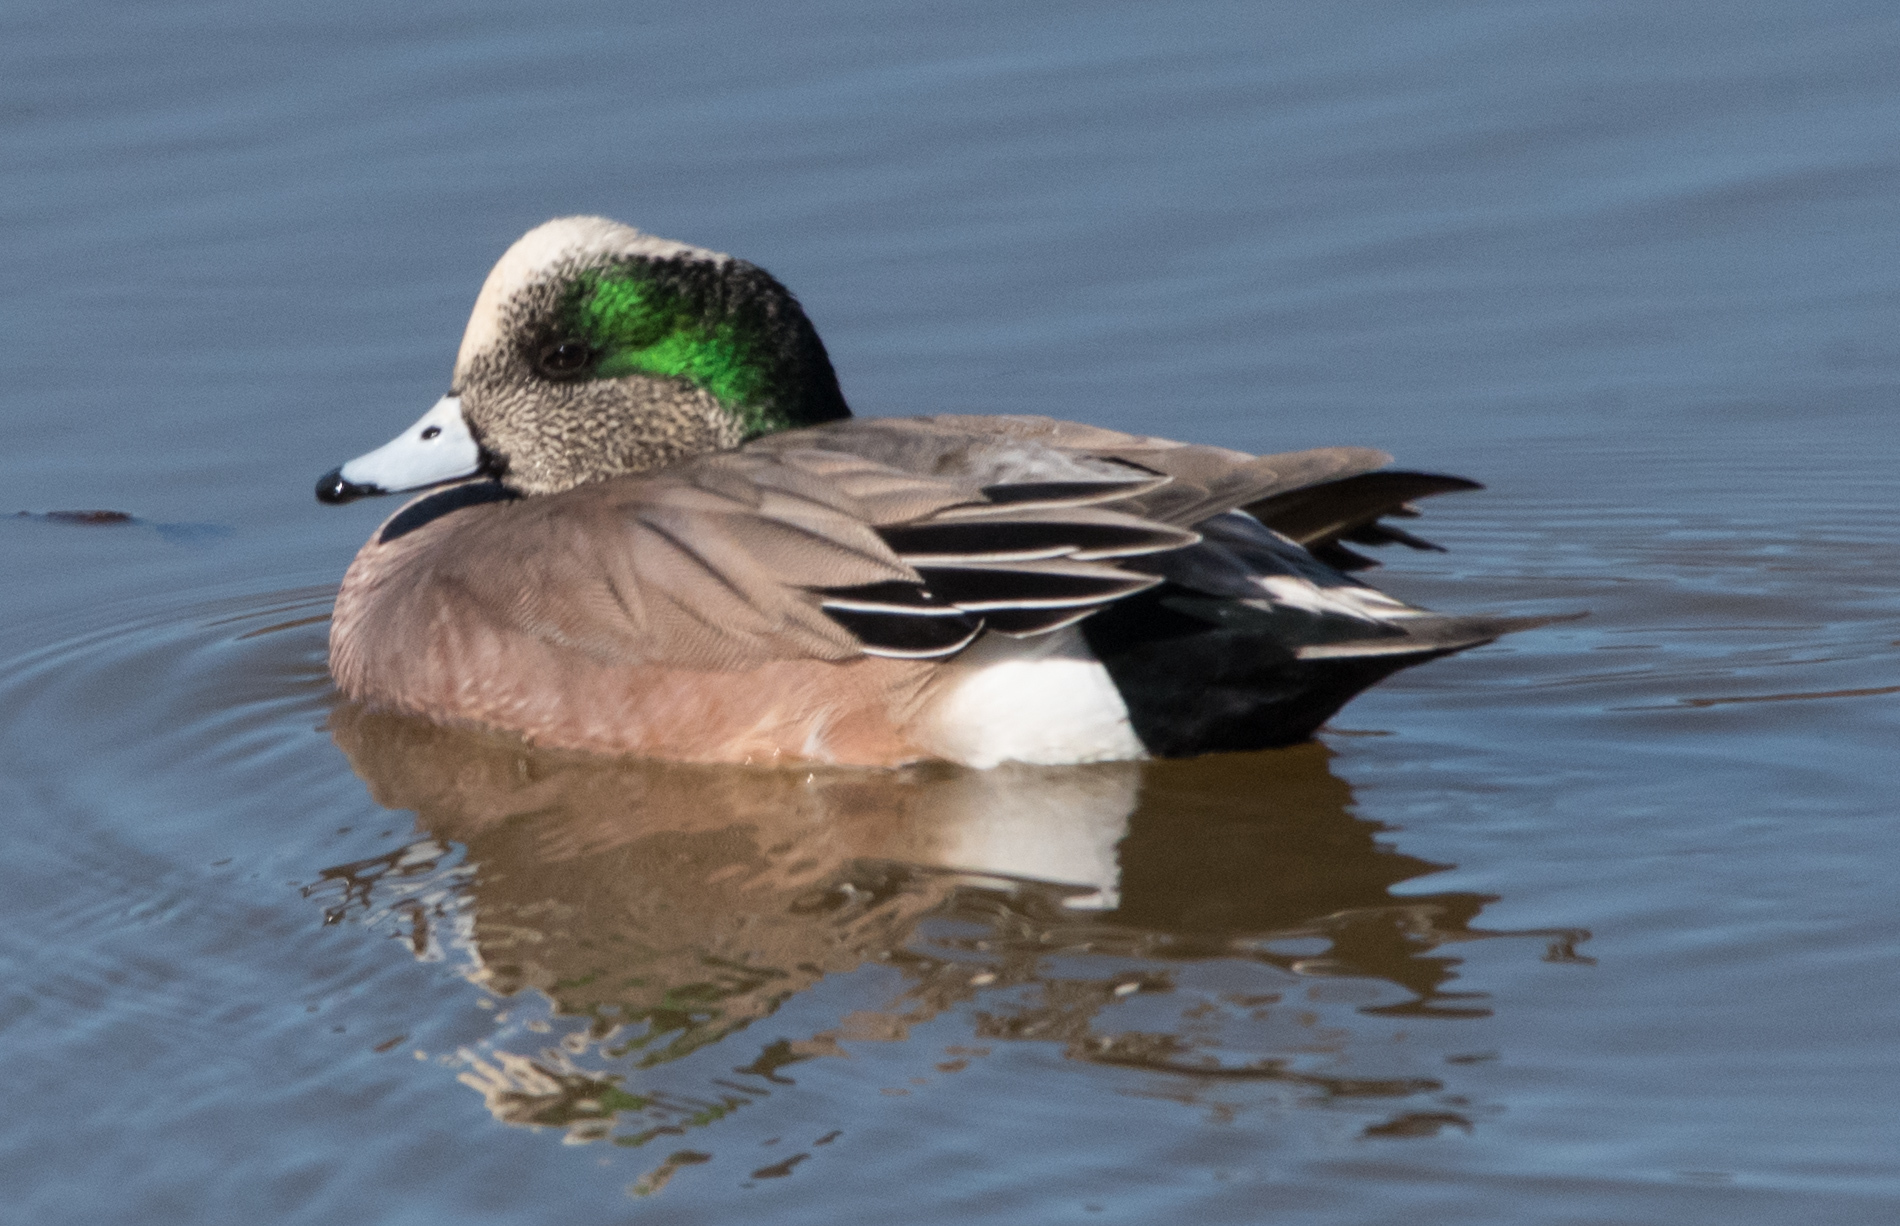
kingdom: Animalia
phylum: Chordata
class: Aves
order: Anseriformes
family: Anatidae
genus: Mareca
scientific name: Mareca americana
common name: American wigeon
